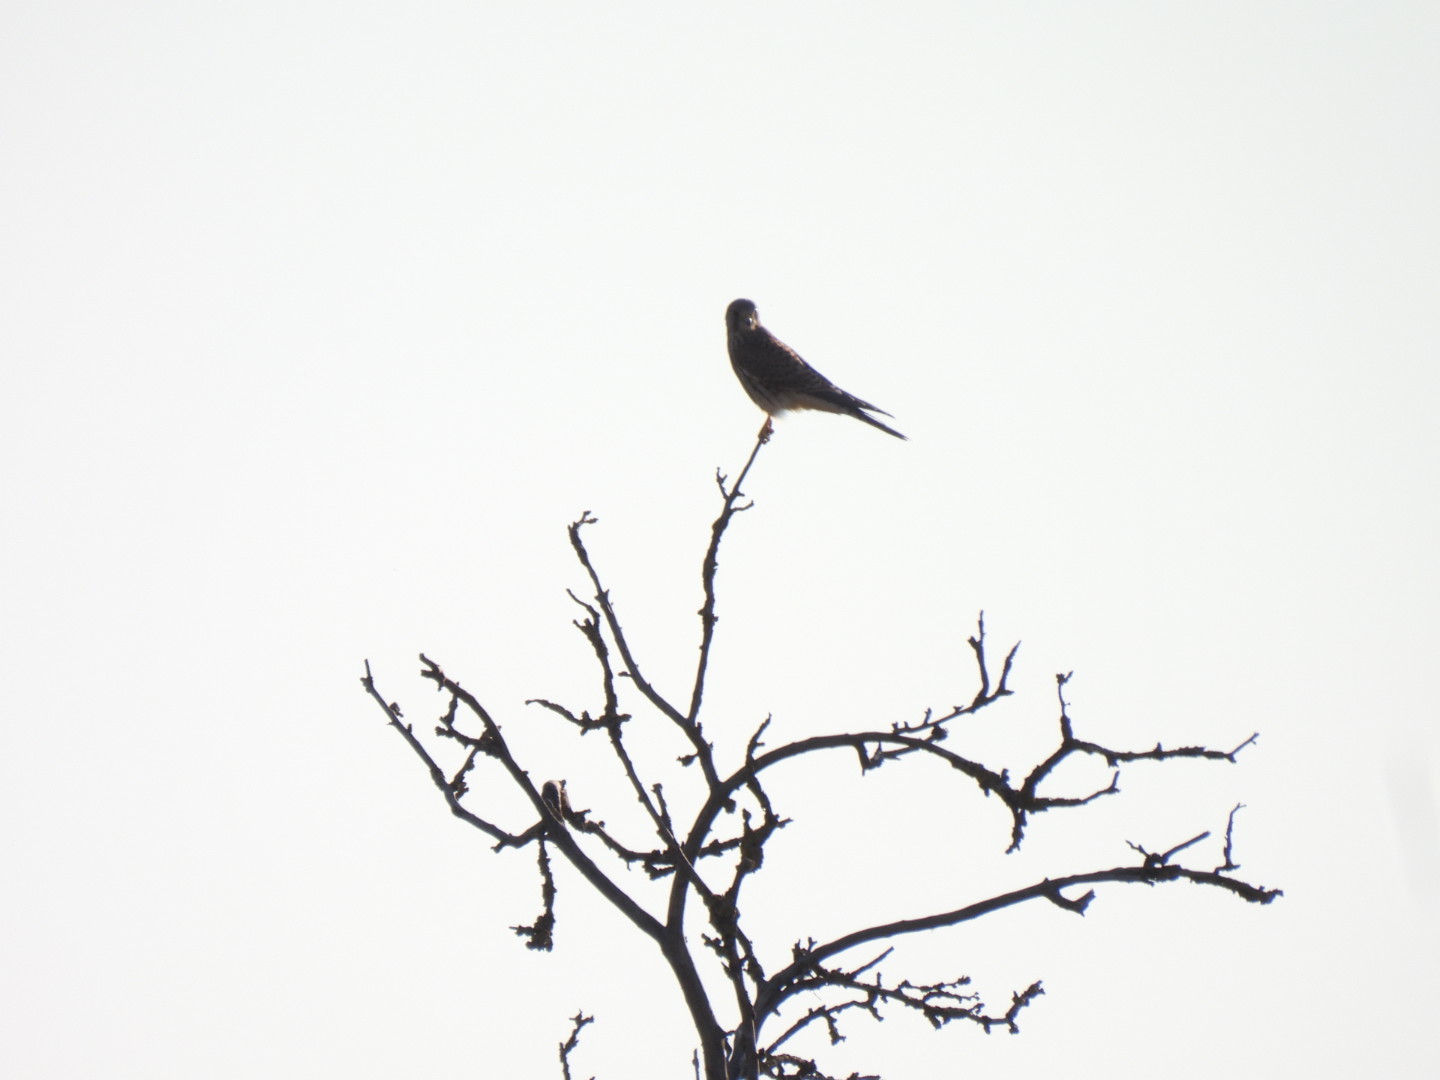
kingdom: Animalia
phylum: Chordata
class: Aves
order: Falconiformes
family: Falconidae
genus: Falco
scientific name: Falco tinnunculus
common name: Common kestrel
